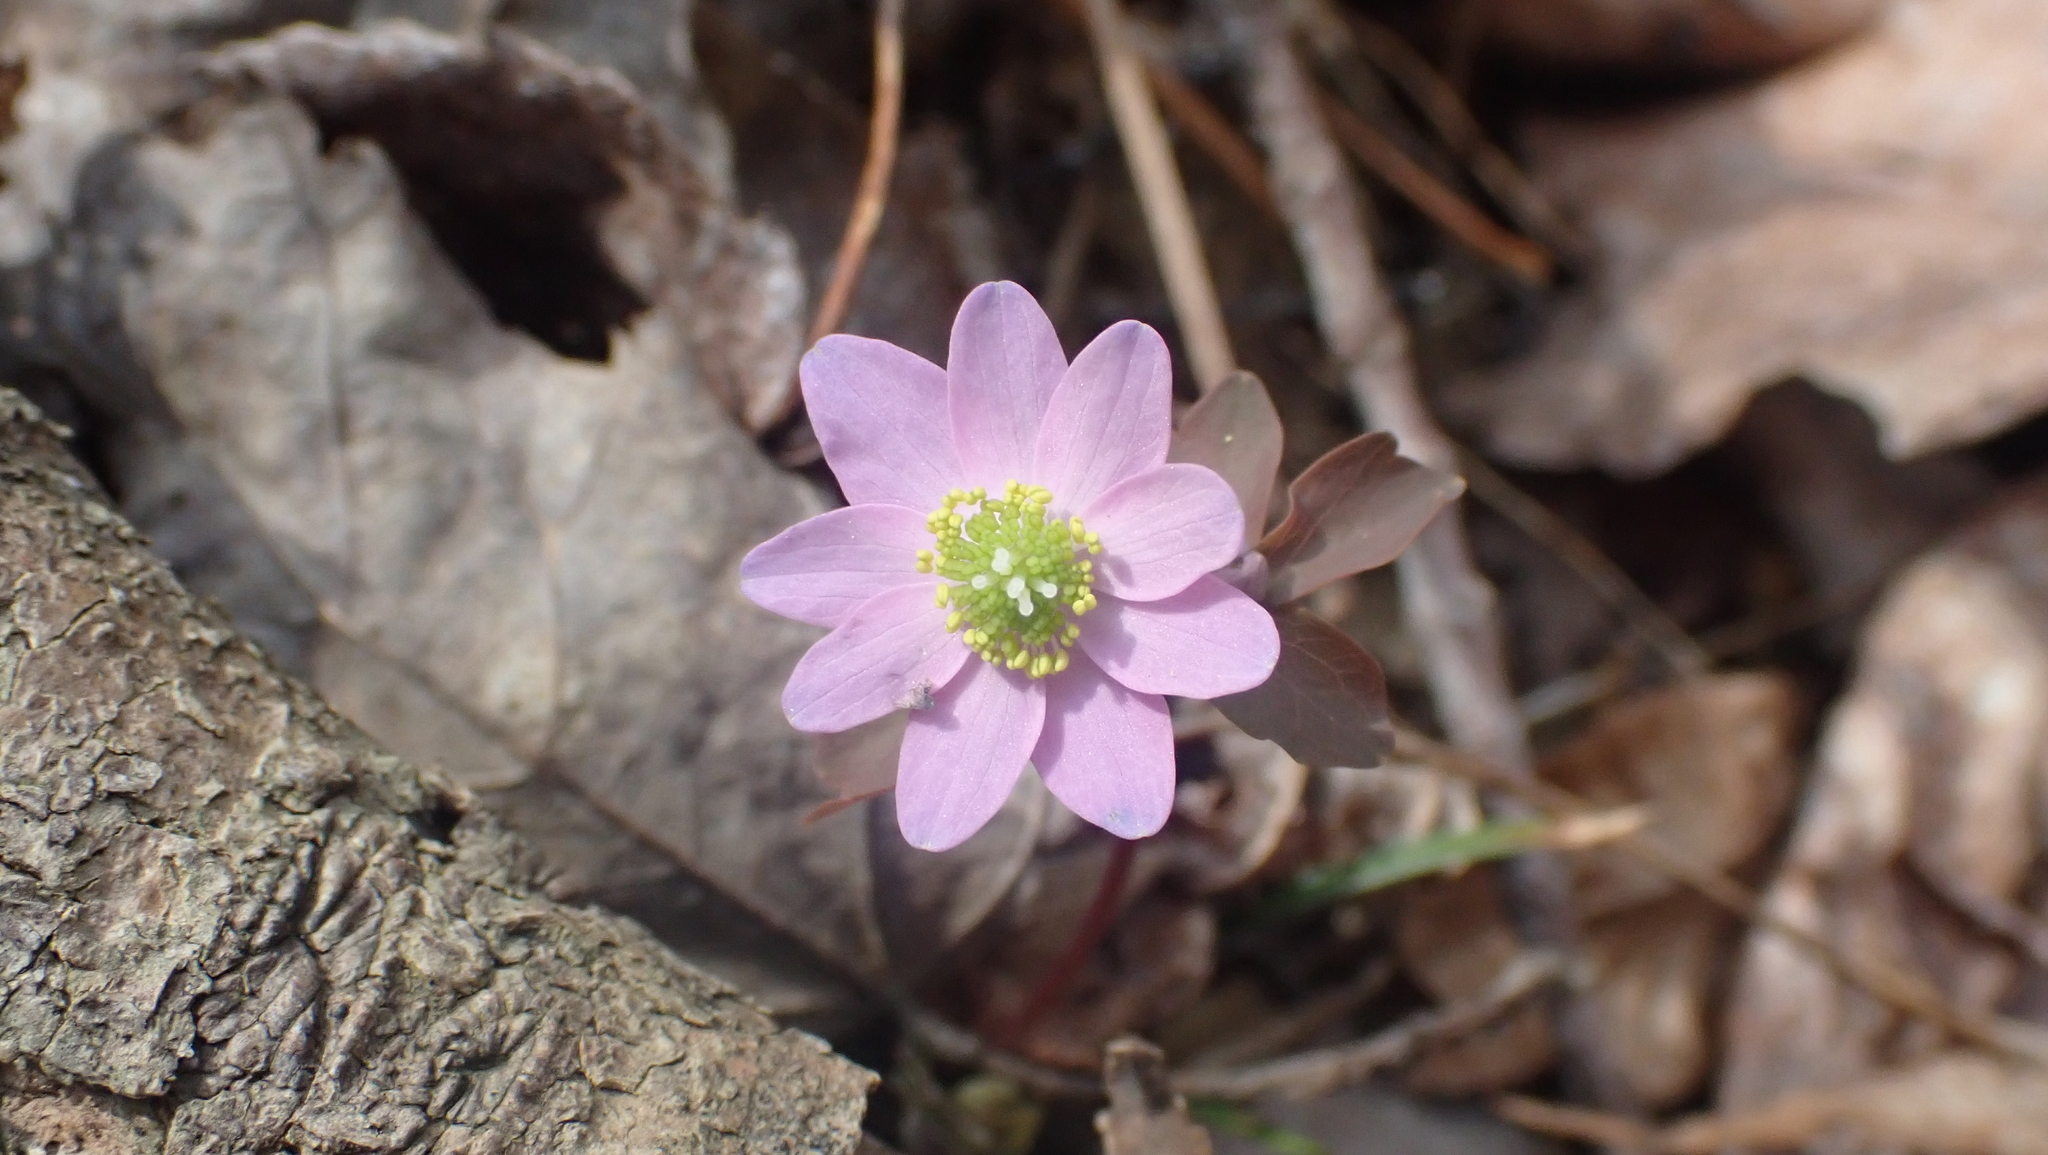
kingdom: Plantae
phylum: Tracheophyta
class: Magnoliopsida
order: Ranunculales
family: Ranunculaceae
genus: Thalictrum
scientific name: Thalictrum thalictroides
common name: Rue-anemone
